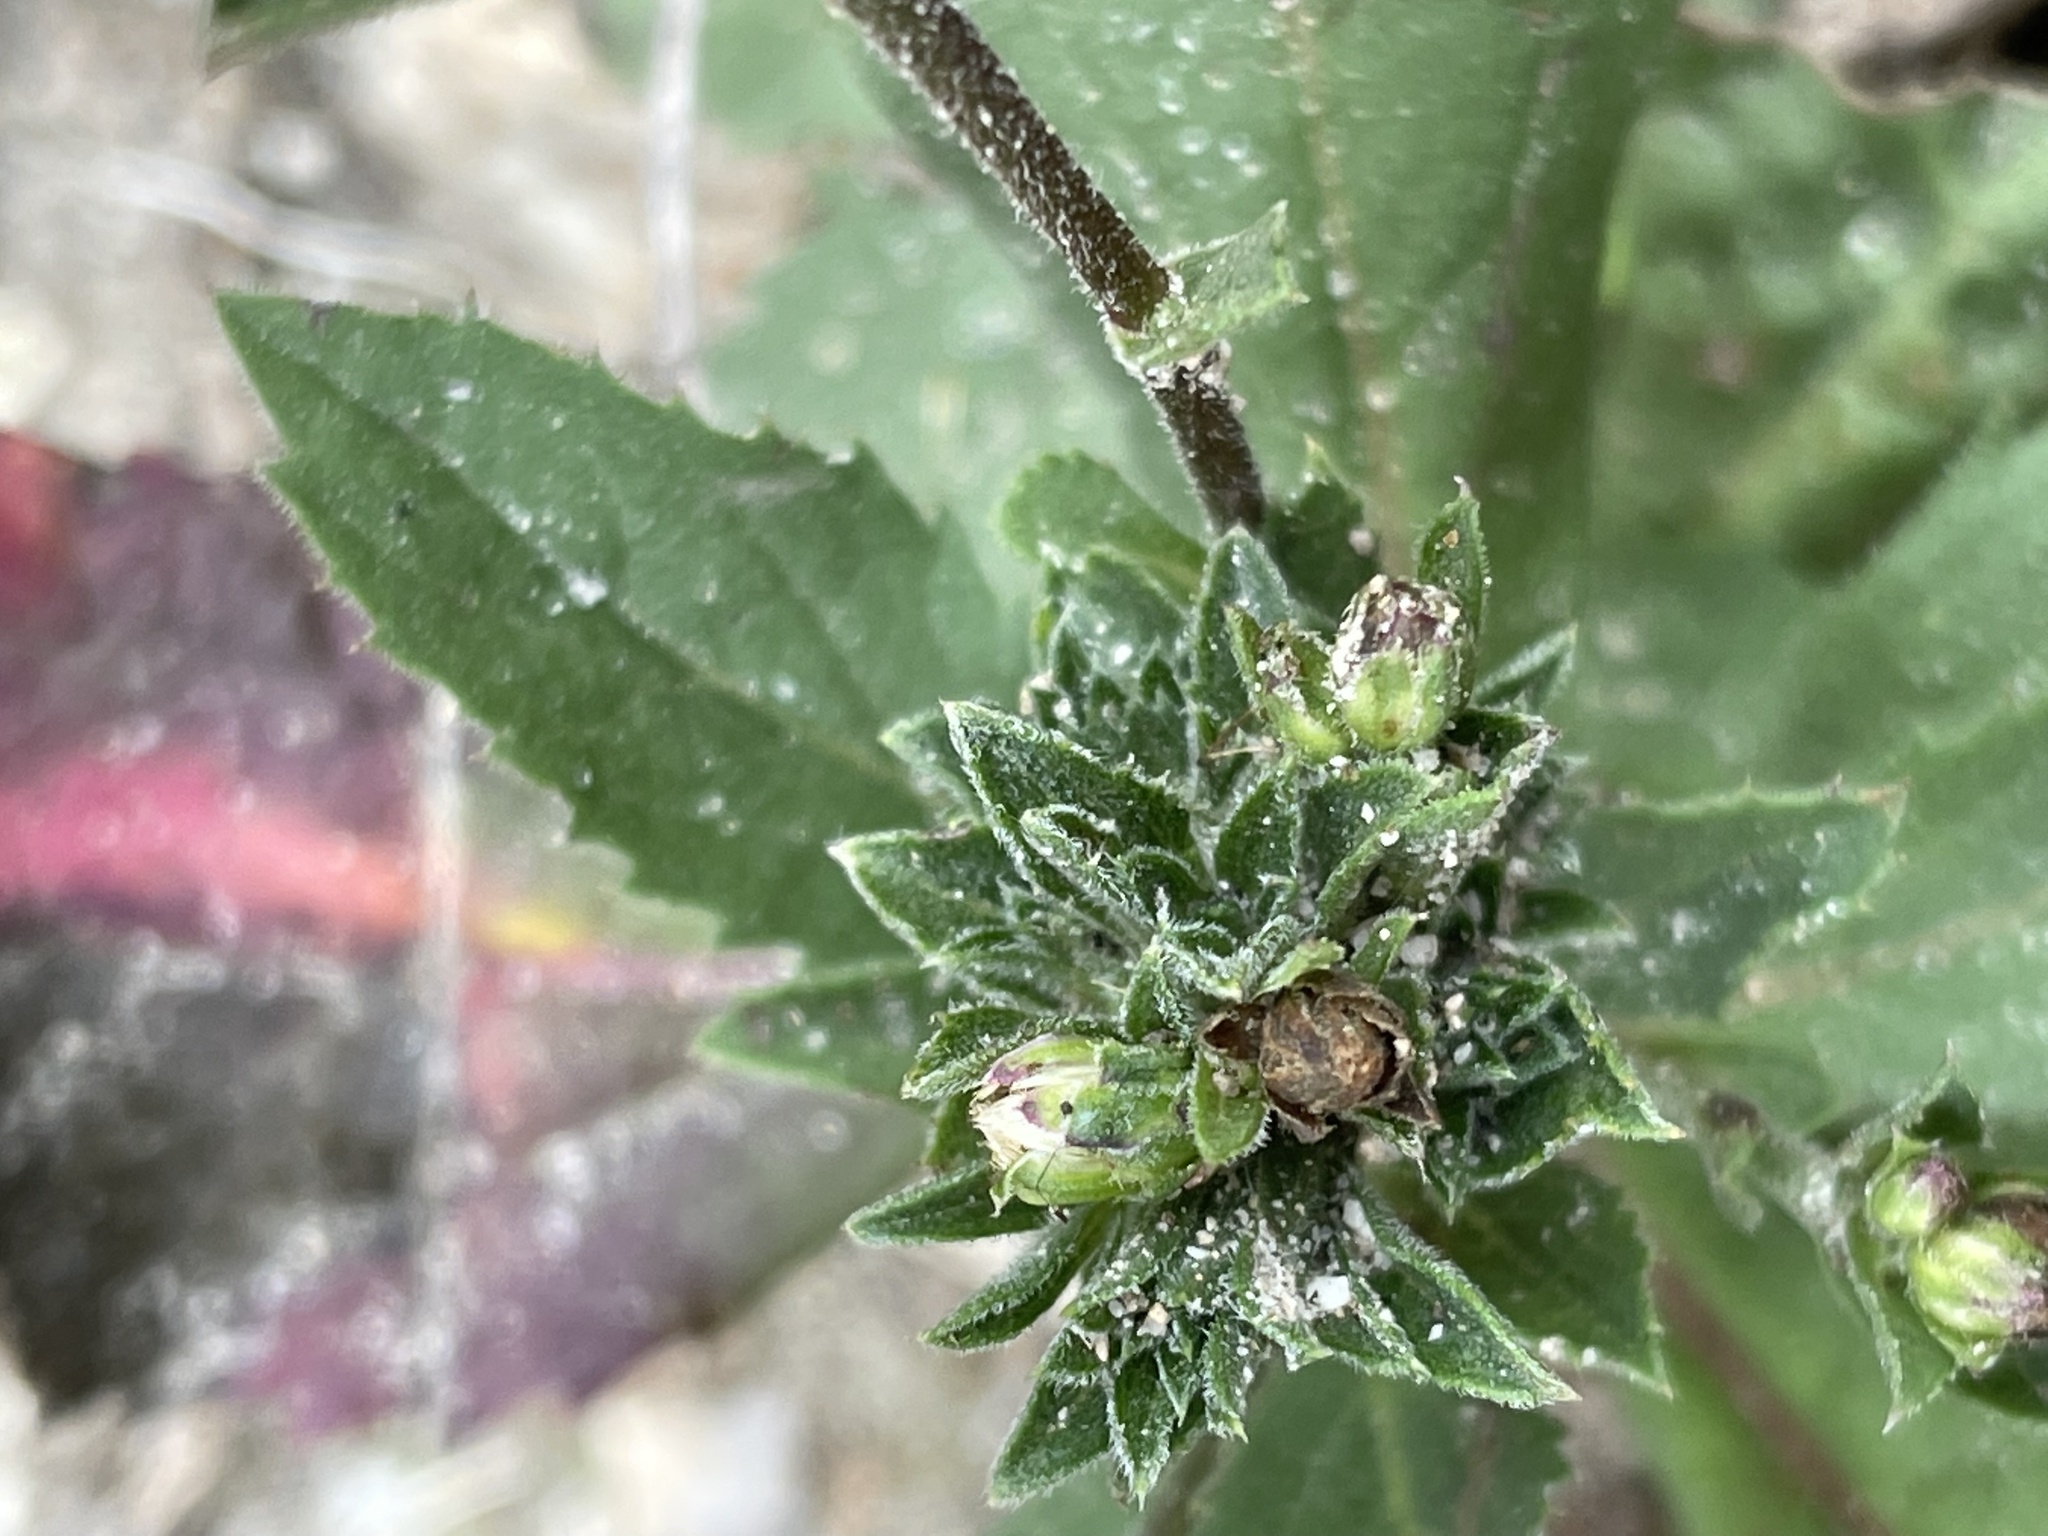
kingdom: Plantae
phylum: Tracheophyta
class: Magnoliopsida
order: Asterales
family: Asteraceae
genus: Eurybia
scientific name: Eurybia radulina
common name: Rough-leaved aster
